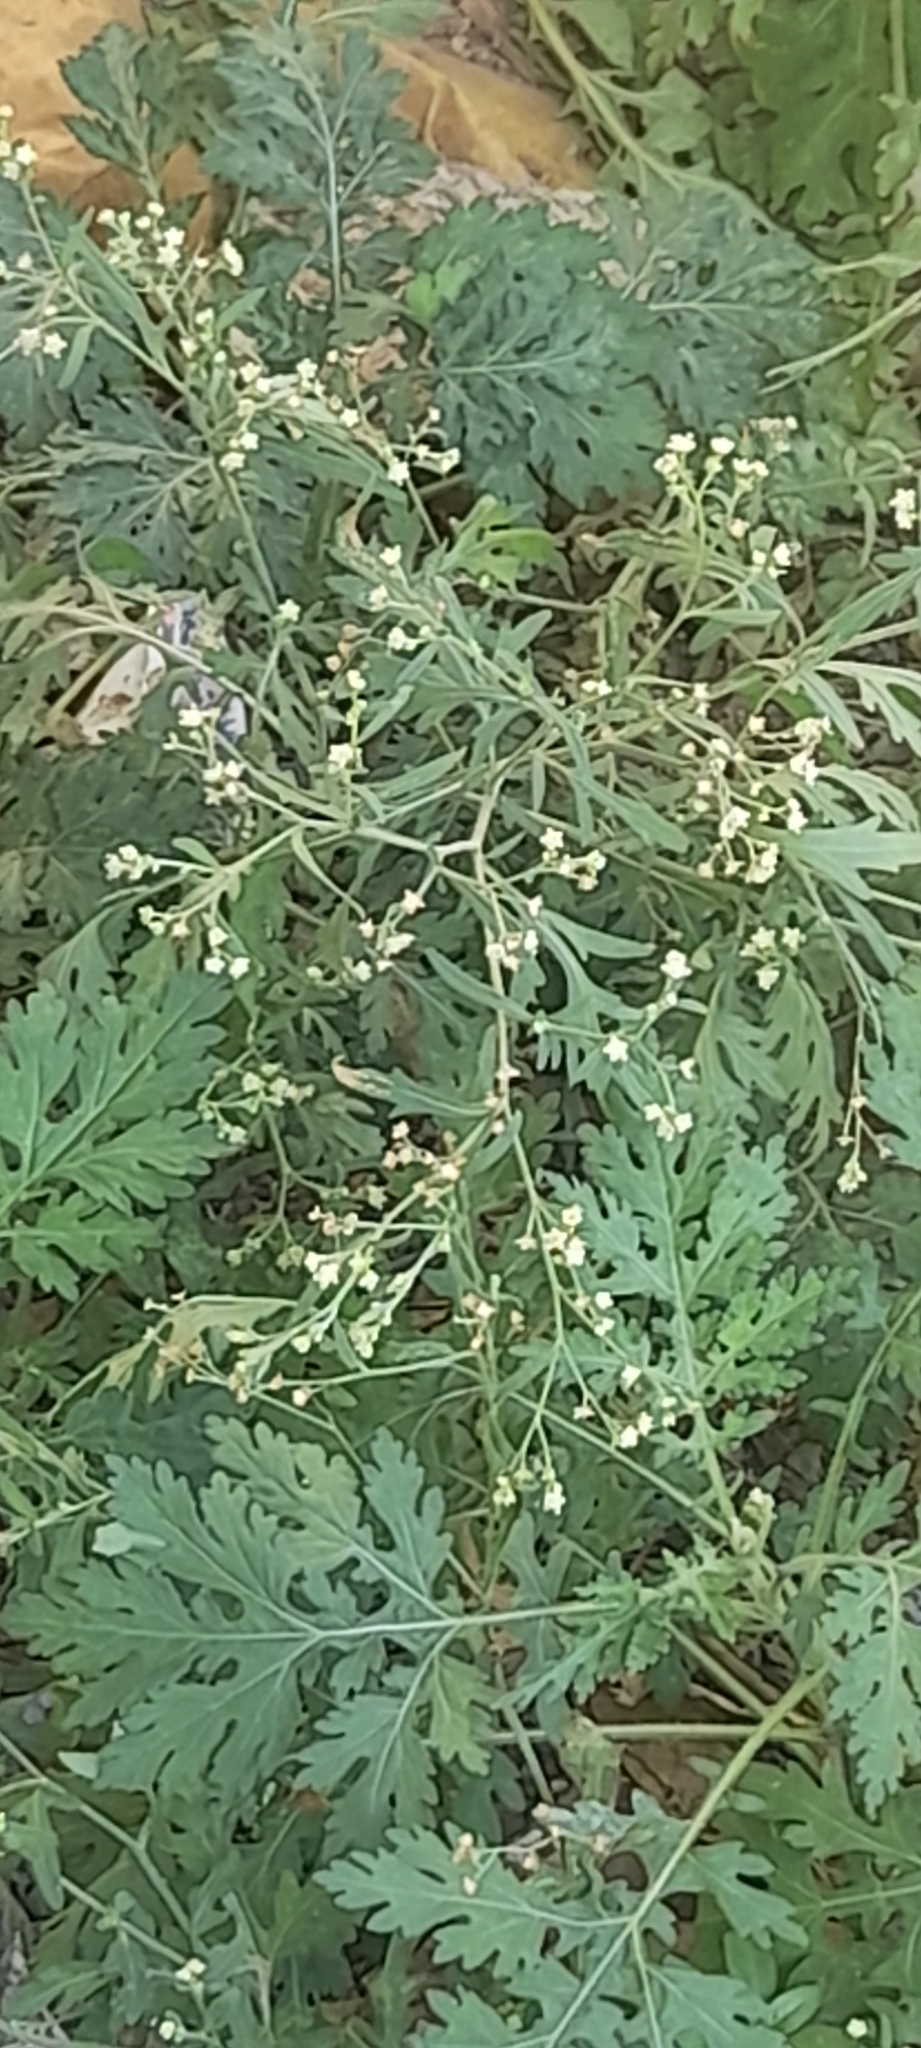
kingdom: Plantae
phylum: Tracheophyta
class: Magnoliopsida
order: Asterales
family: Asteraceae
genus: Parthenium
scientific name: Parthenium hysterophorus
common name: Santa maria feverfew
